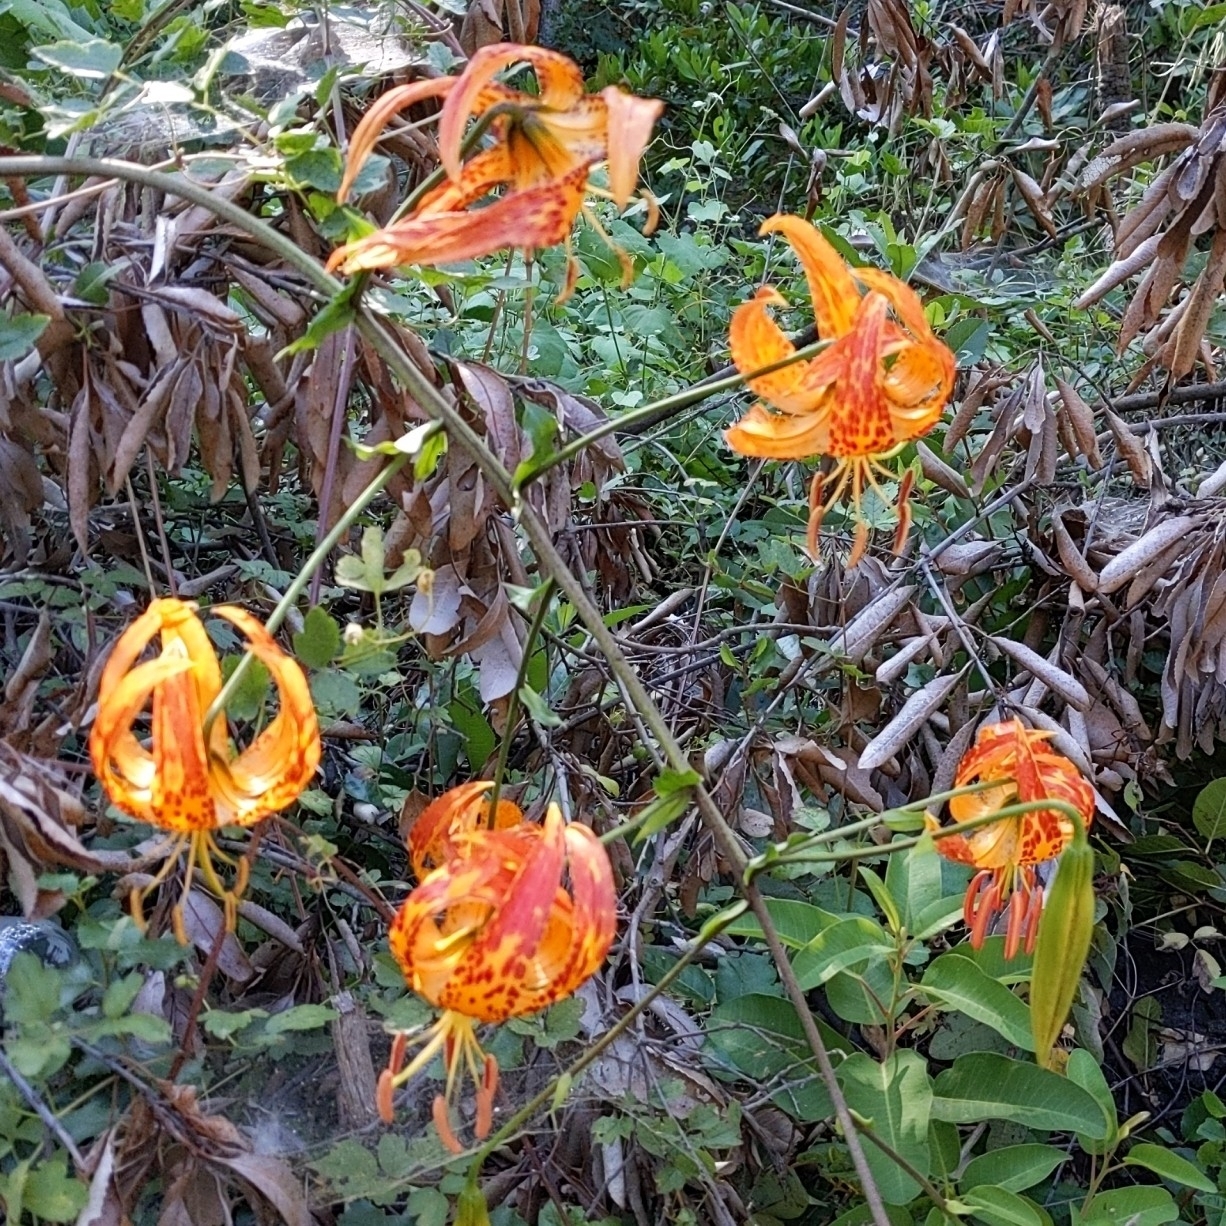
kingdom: Plantae
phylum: Tracheophyta
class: Liliopsida
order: Liliales
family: Liliaceae
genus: Lilium
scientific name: Lilium humboldtii
